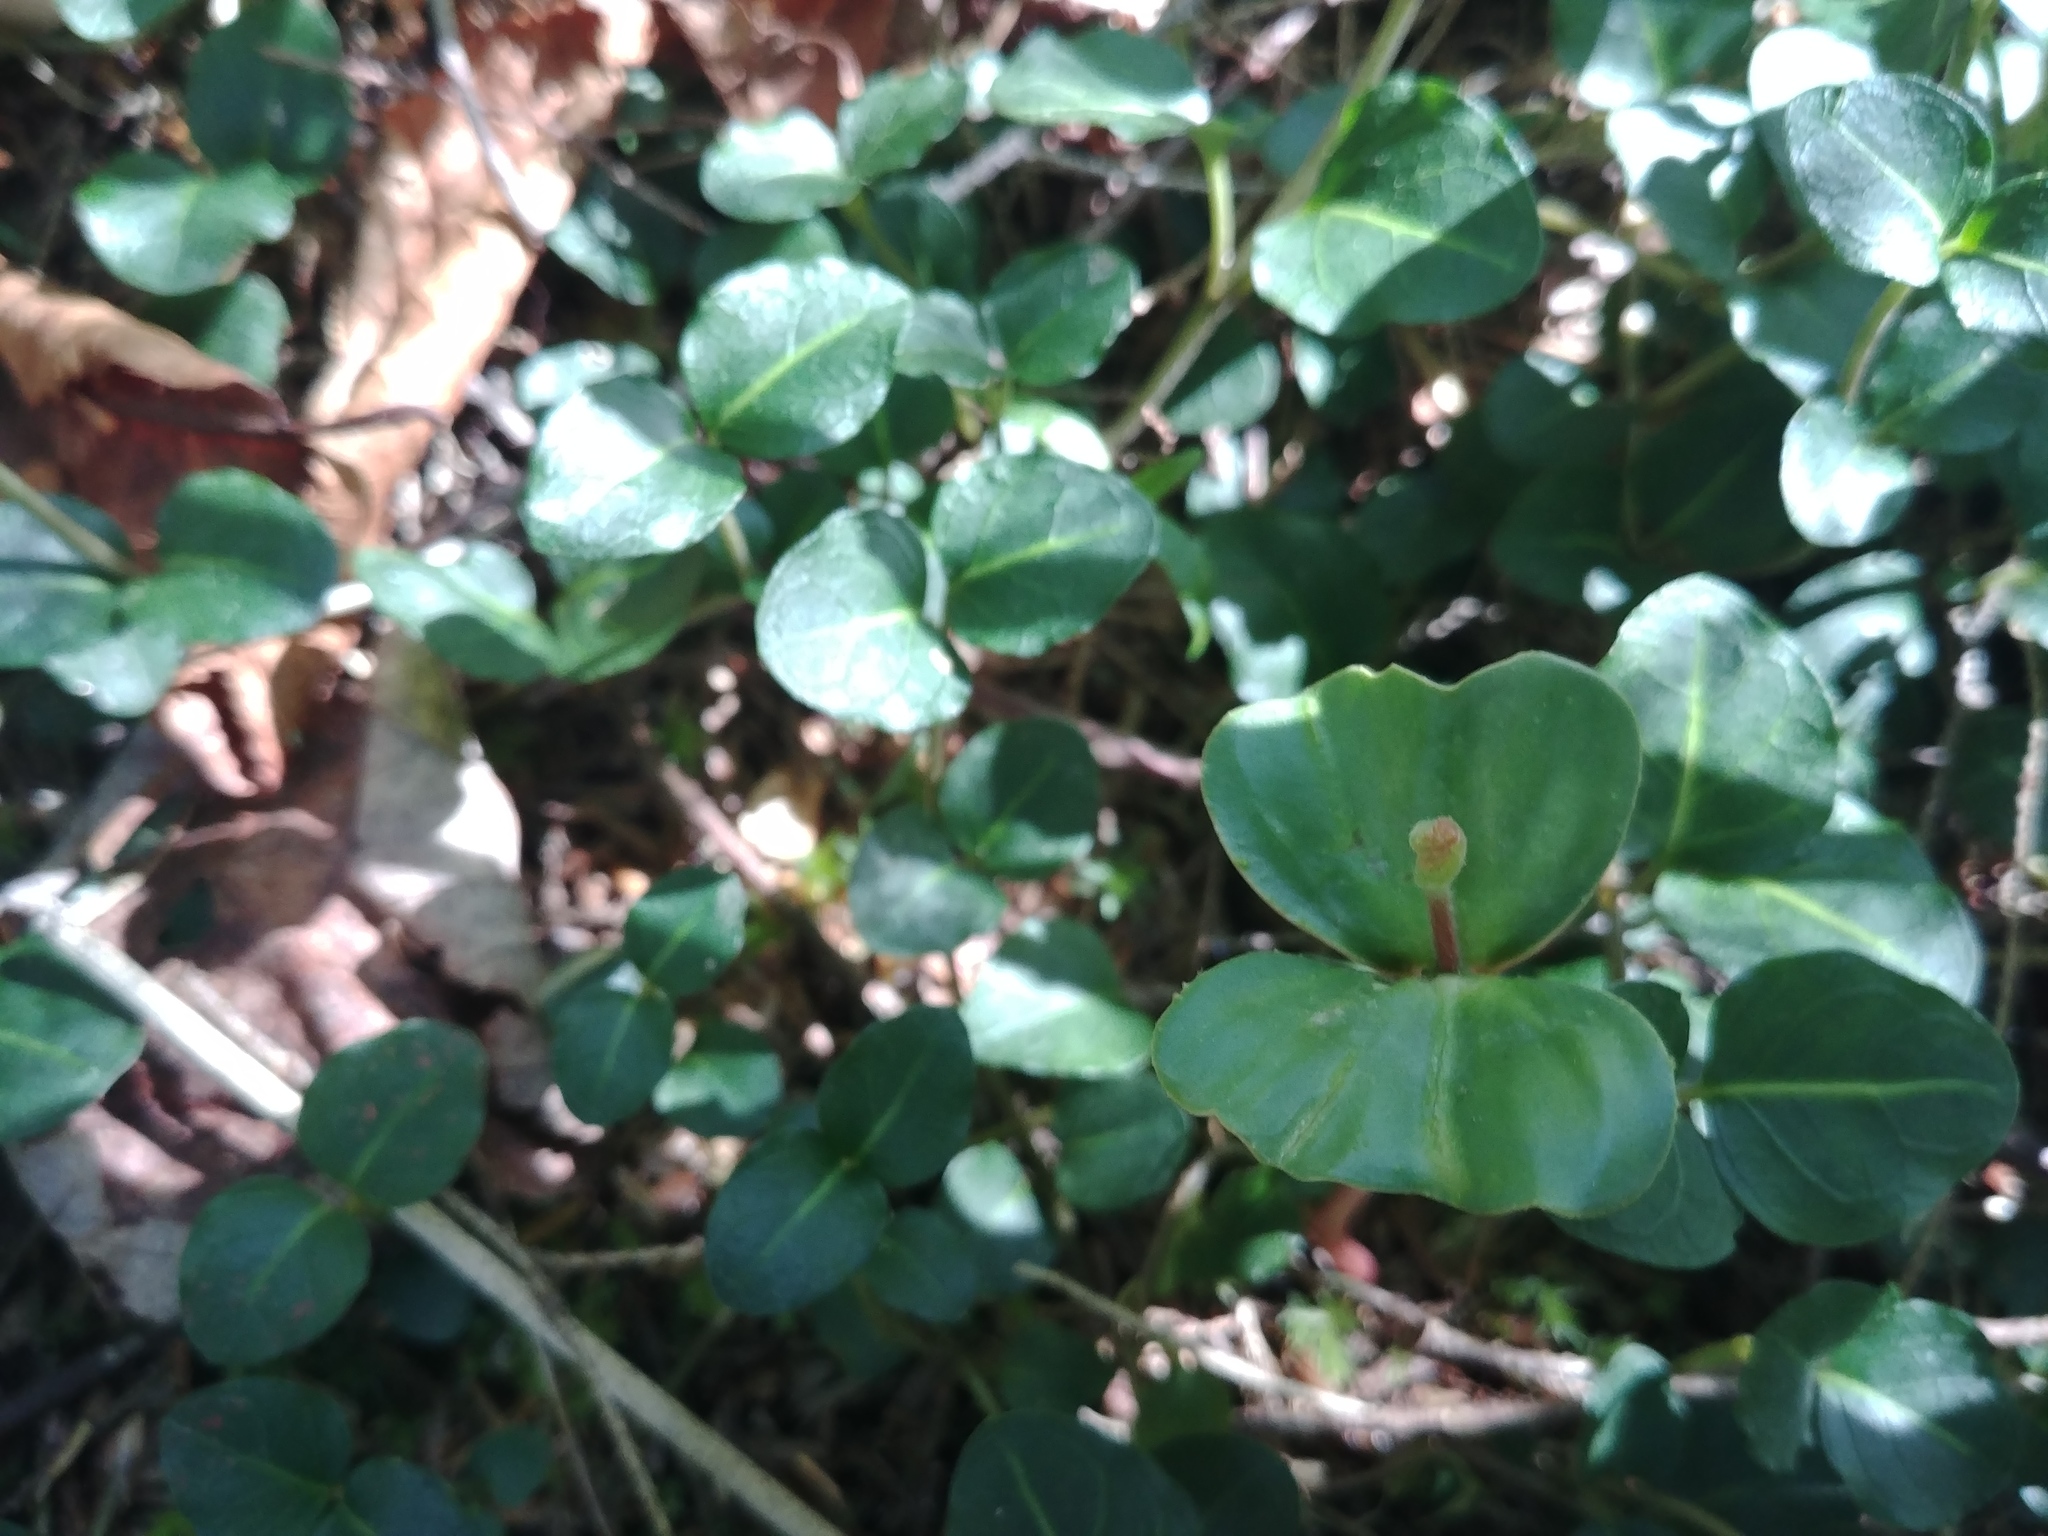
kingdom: Plantae
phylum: Tracheophyta
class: Magnoliopsida
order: Fagales
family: Fagaceae
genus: Fagus
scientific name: Fagus grandifolia
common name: American beech
